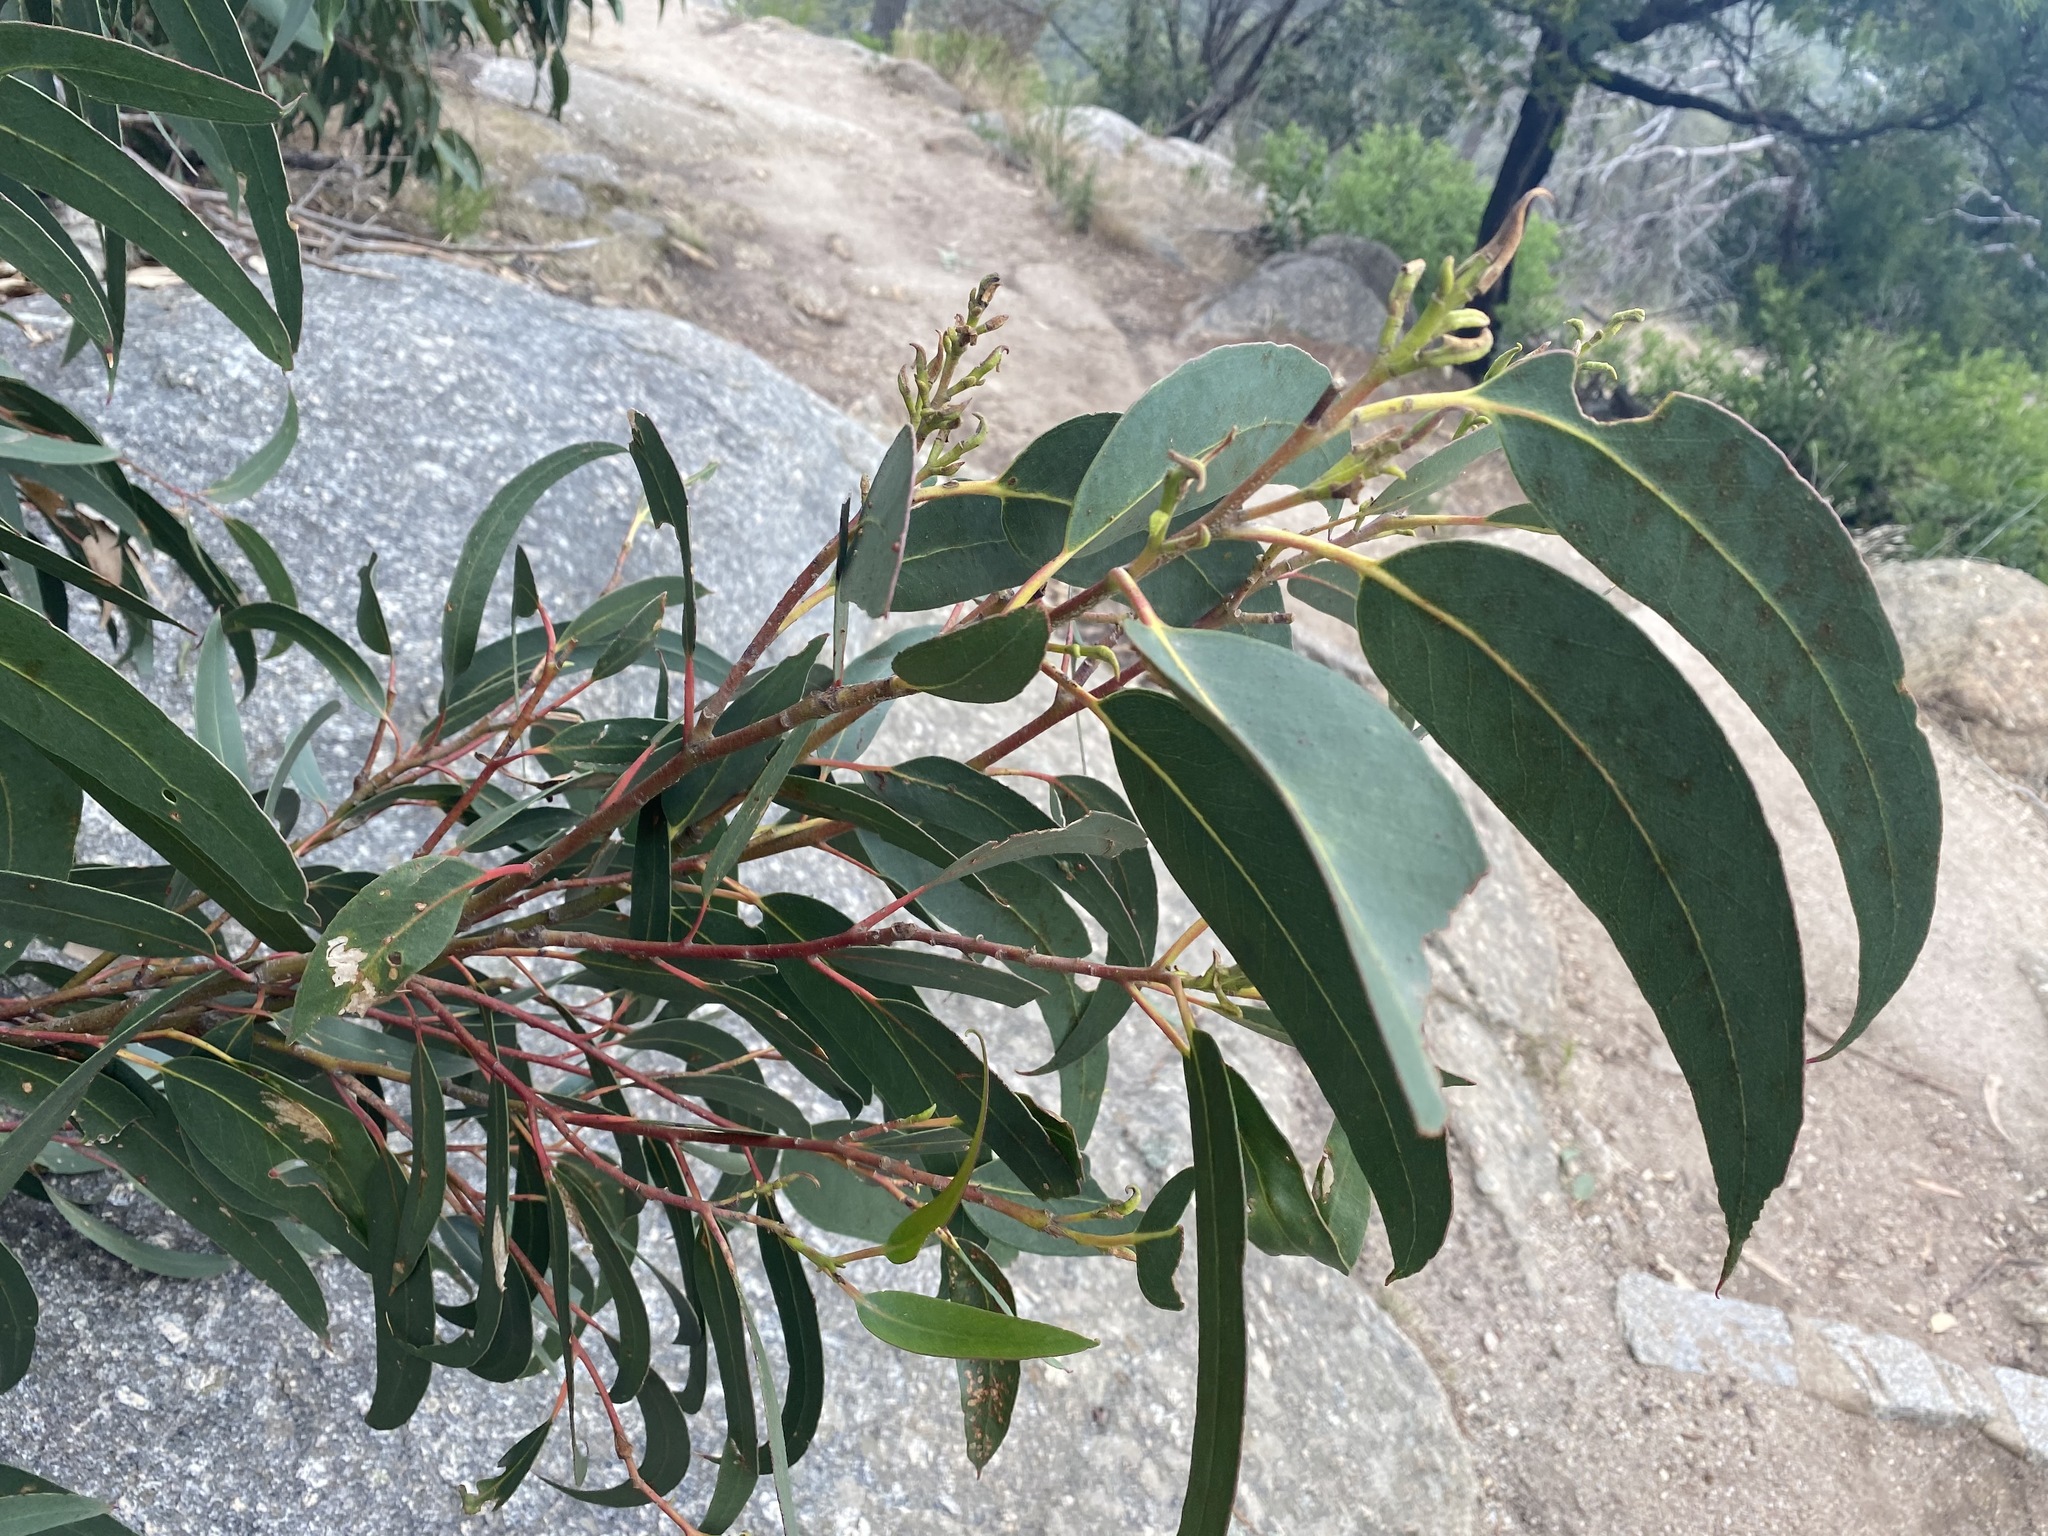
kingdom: Plantae
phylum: Tracheophyta
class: Magnoliopsida
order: Myrtales
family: Myrtaceae
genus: Eucalyptus
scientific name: Eucalyptus globulus
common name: Southern blue-gum
